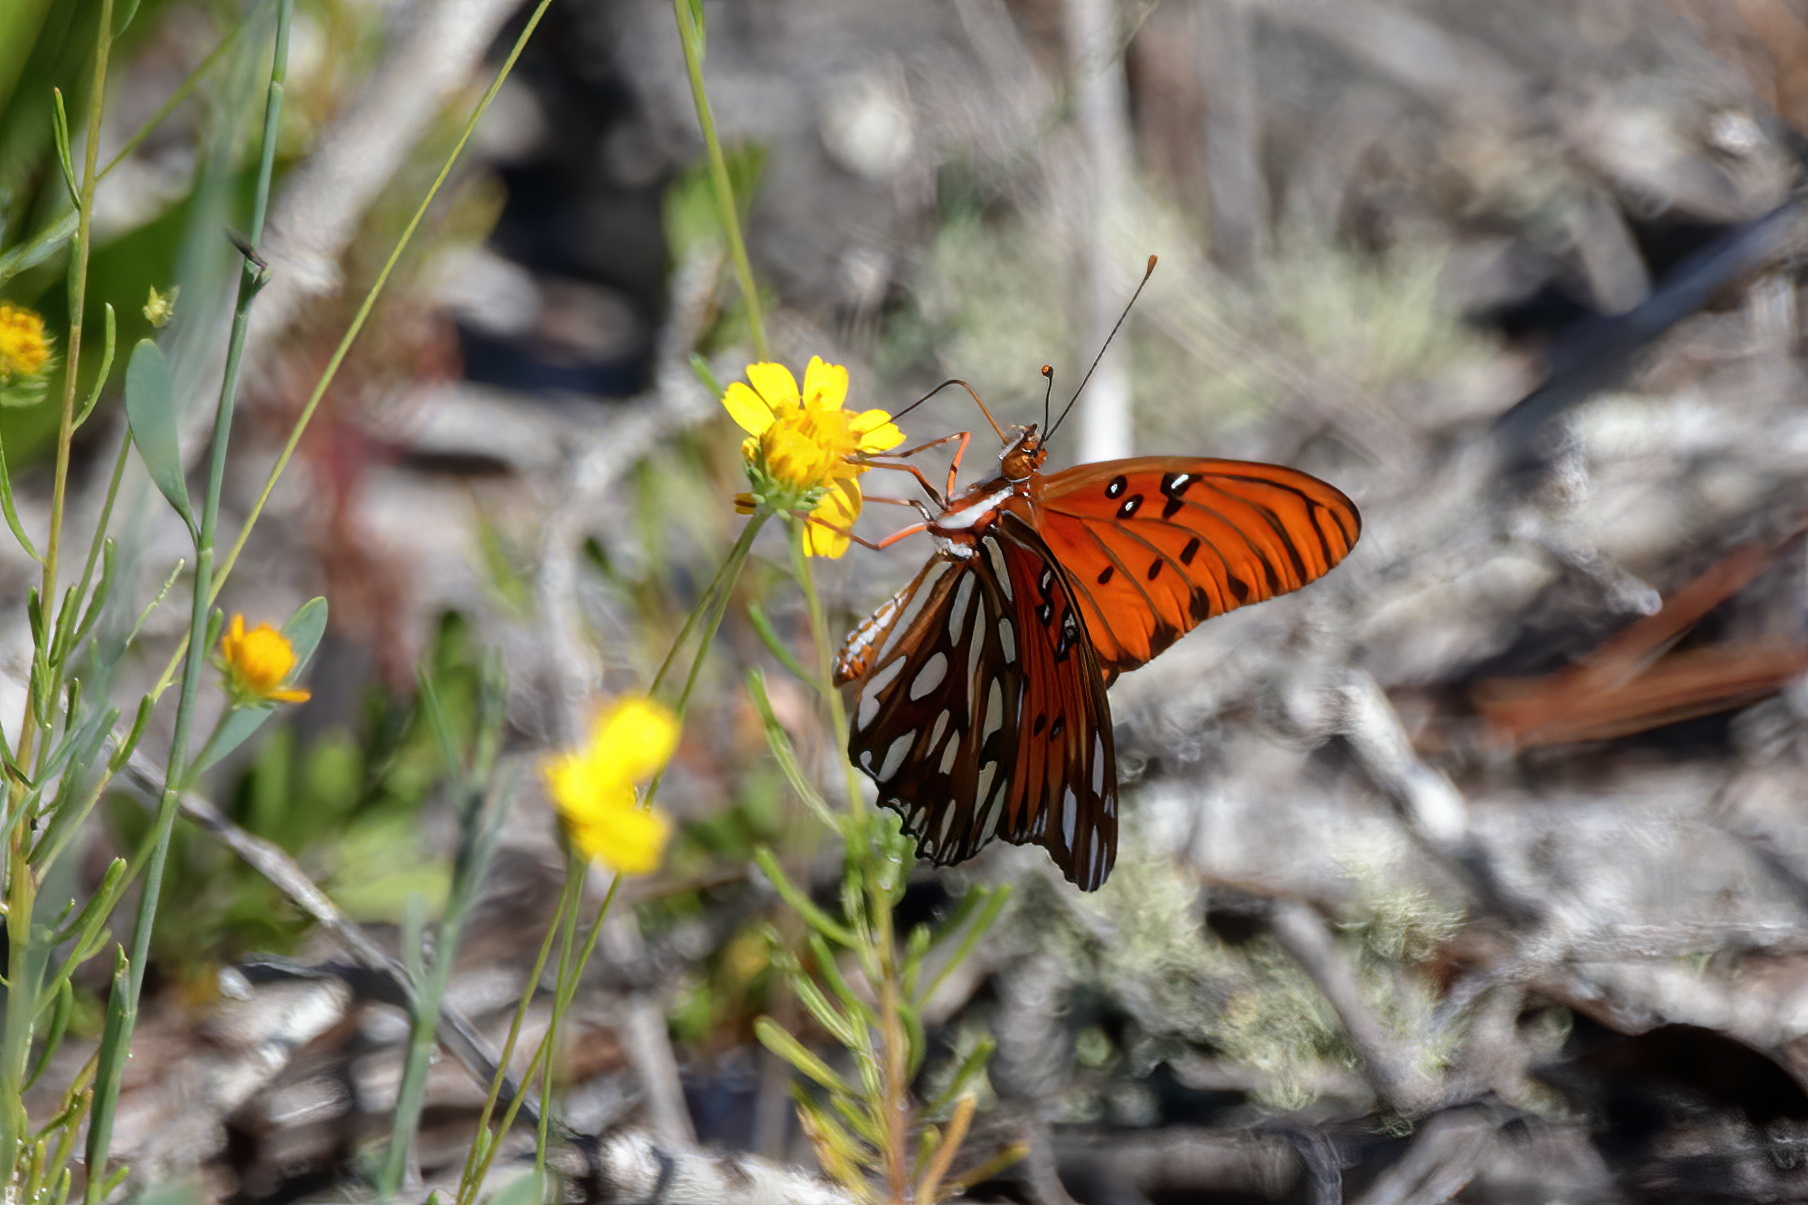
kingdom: Animalia
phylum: Arthropoda
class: Insecta
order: Lepidoptera
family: Nymphalidae
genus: Dione
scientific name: Dione vanillae
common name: Gulf fritillary
